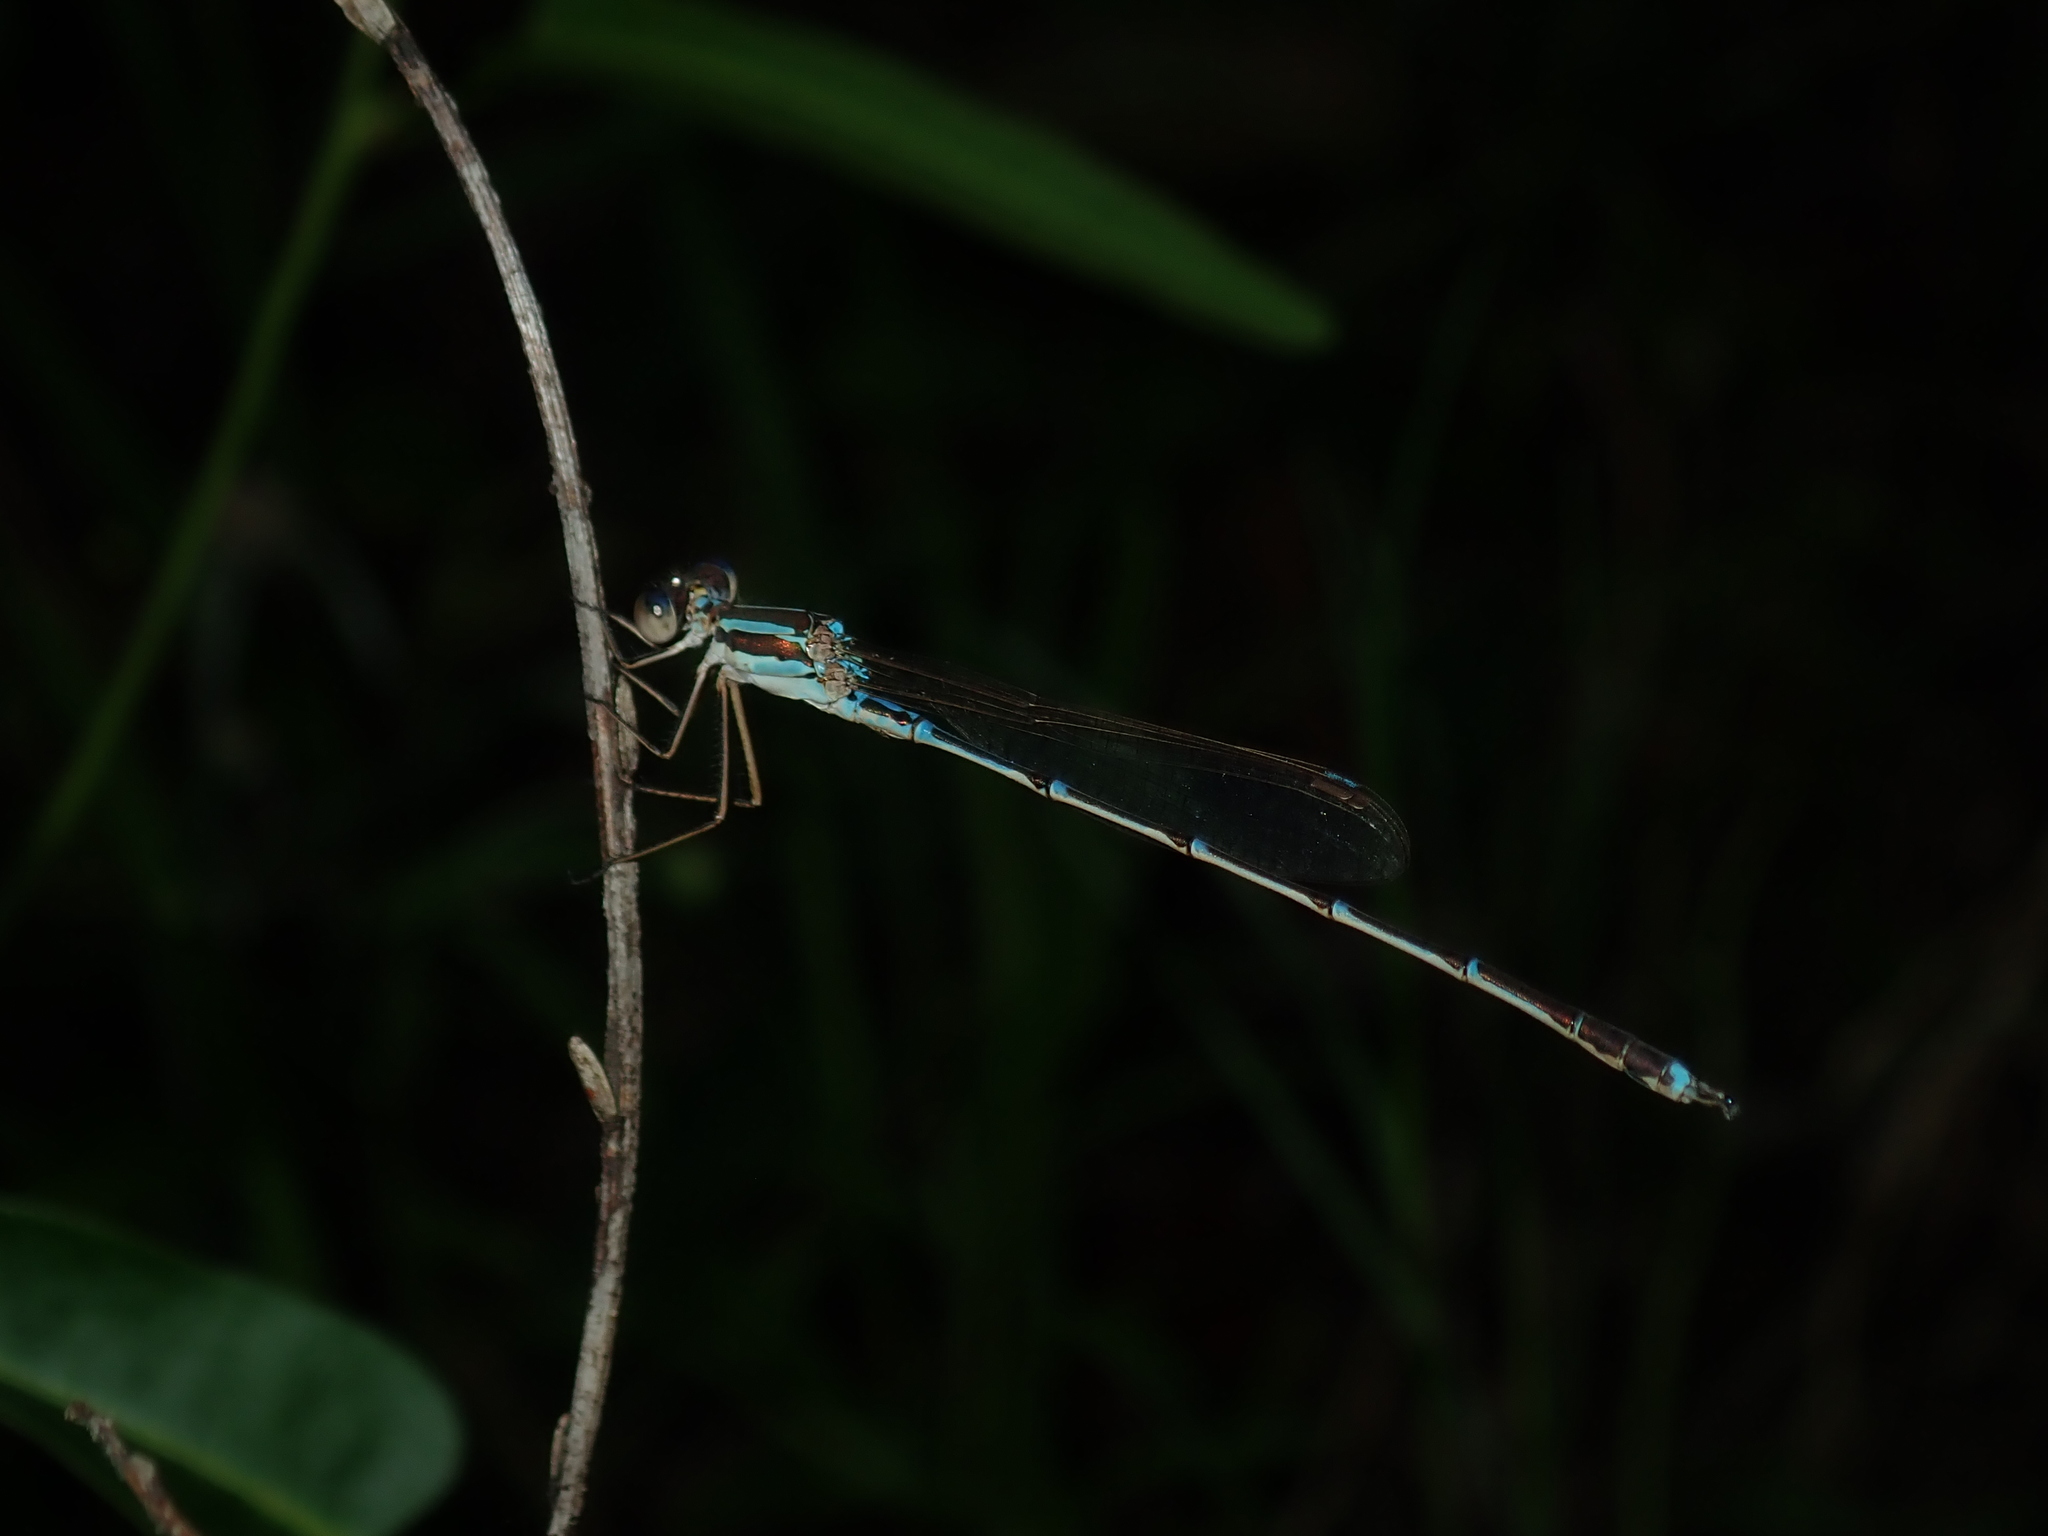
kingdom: Animalia
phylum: Arthropoda
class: Insecta
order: Odonata
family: Lestidae
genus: Austrolestes
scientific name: Austrolestes analis
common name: Slender ringtail
